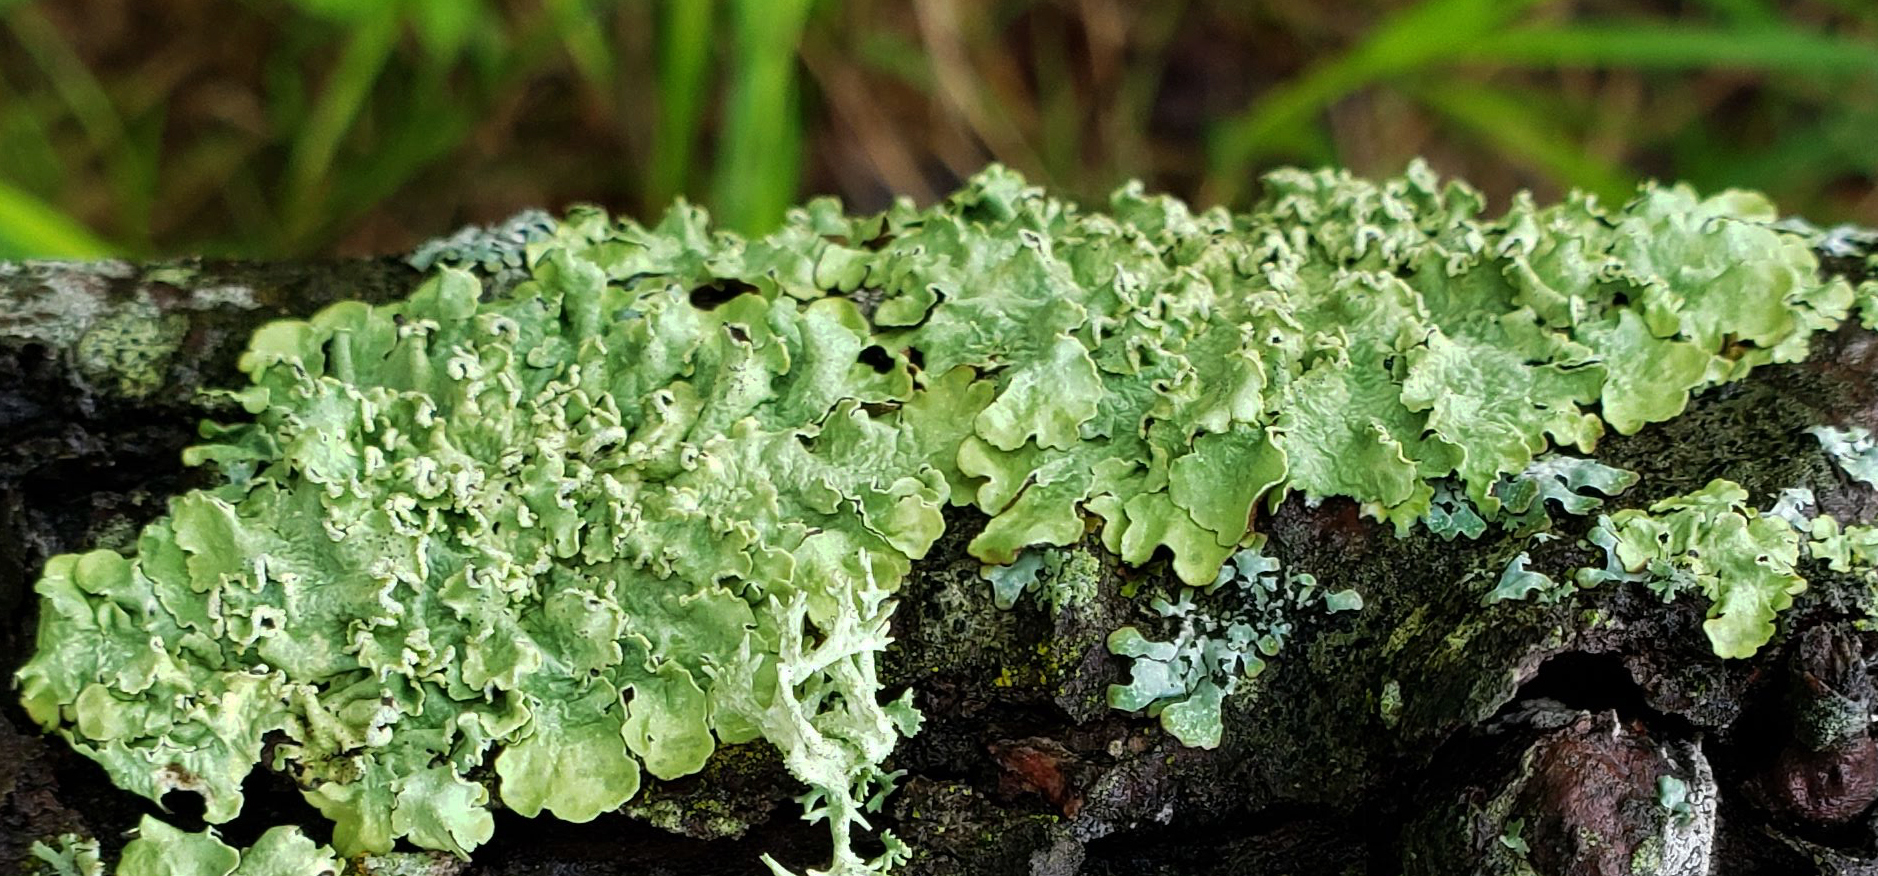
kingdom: Fungi
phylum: Ascomycota
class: Lecanoromycetes
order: Lecanorales
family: Parmeliaceae
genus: Flavopunctelia
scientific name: Flavopunctelia soredica
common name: Powder-edged speckled greenshield
